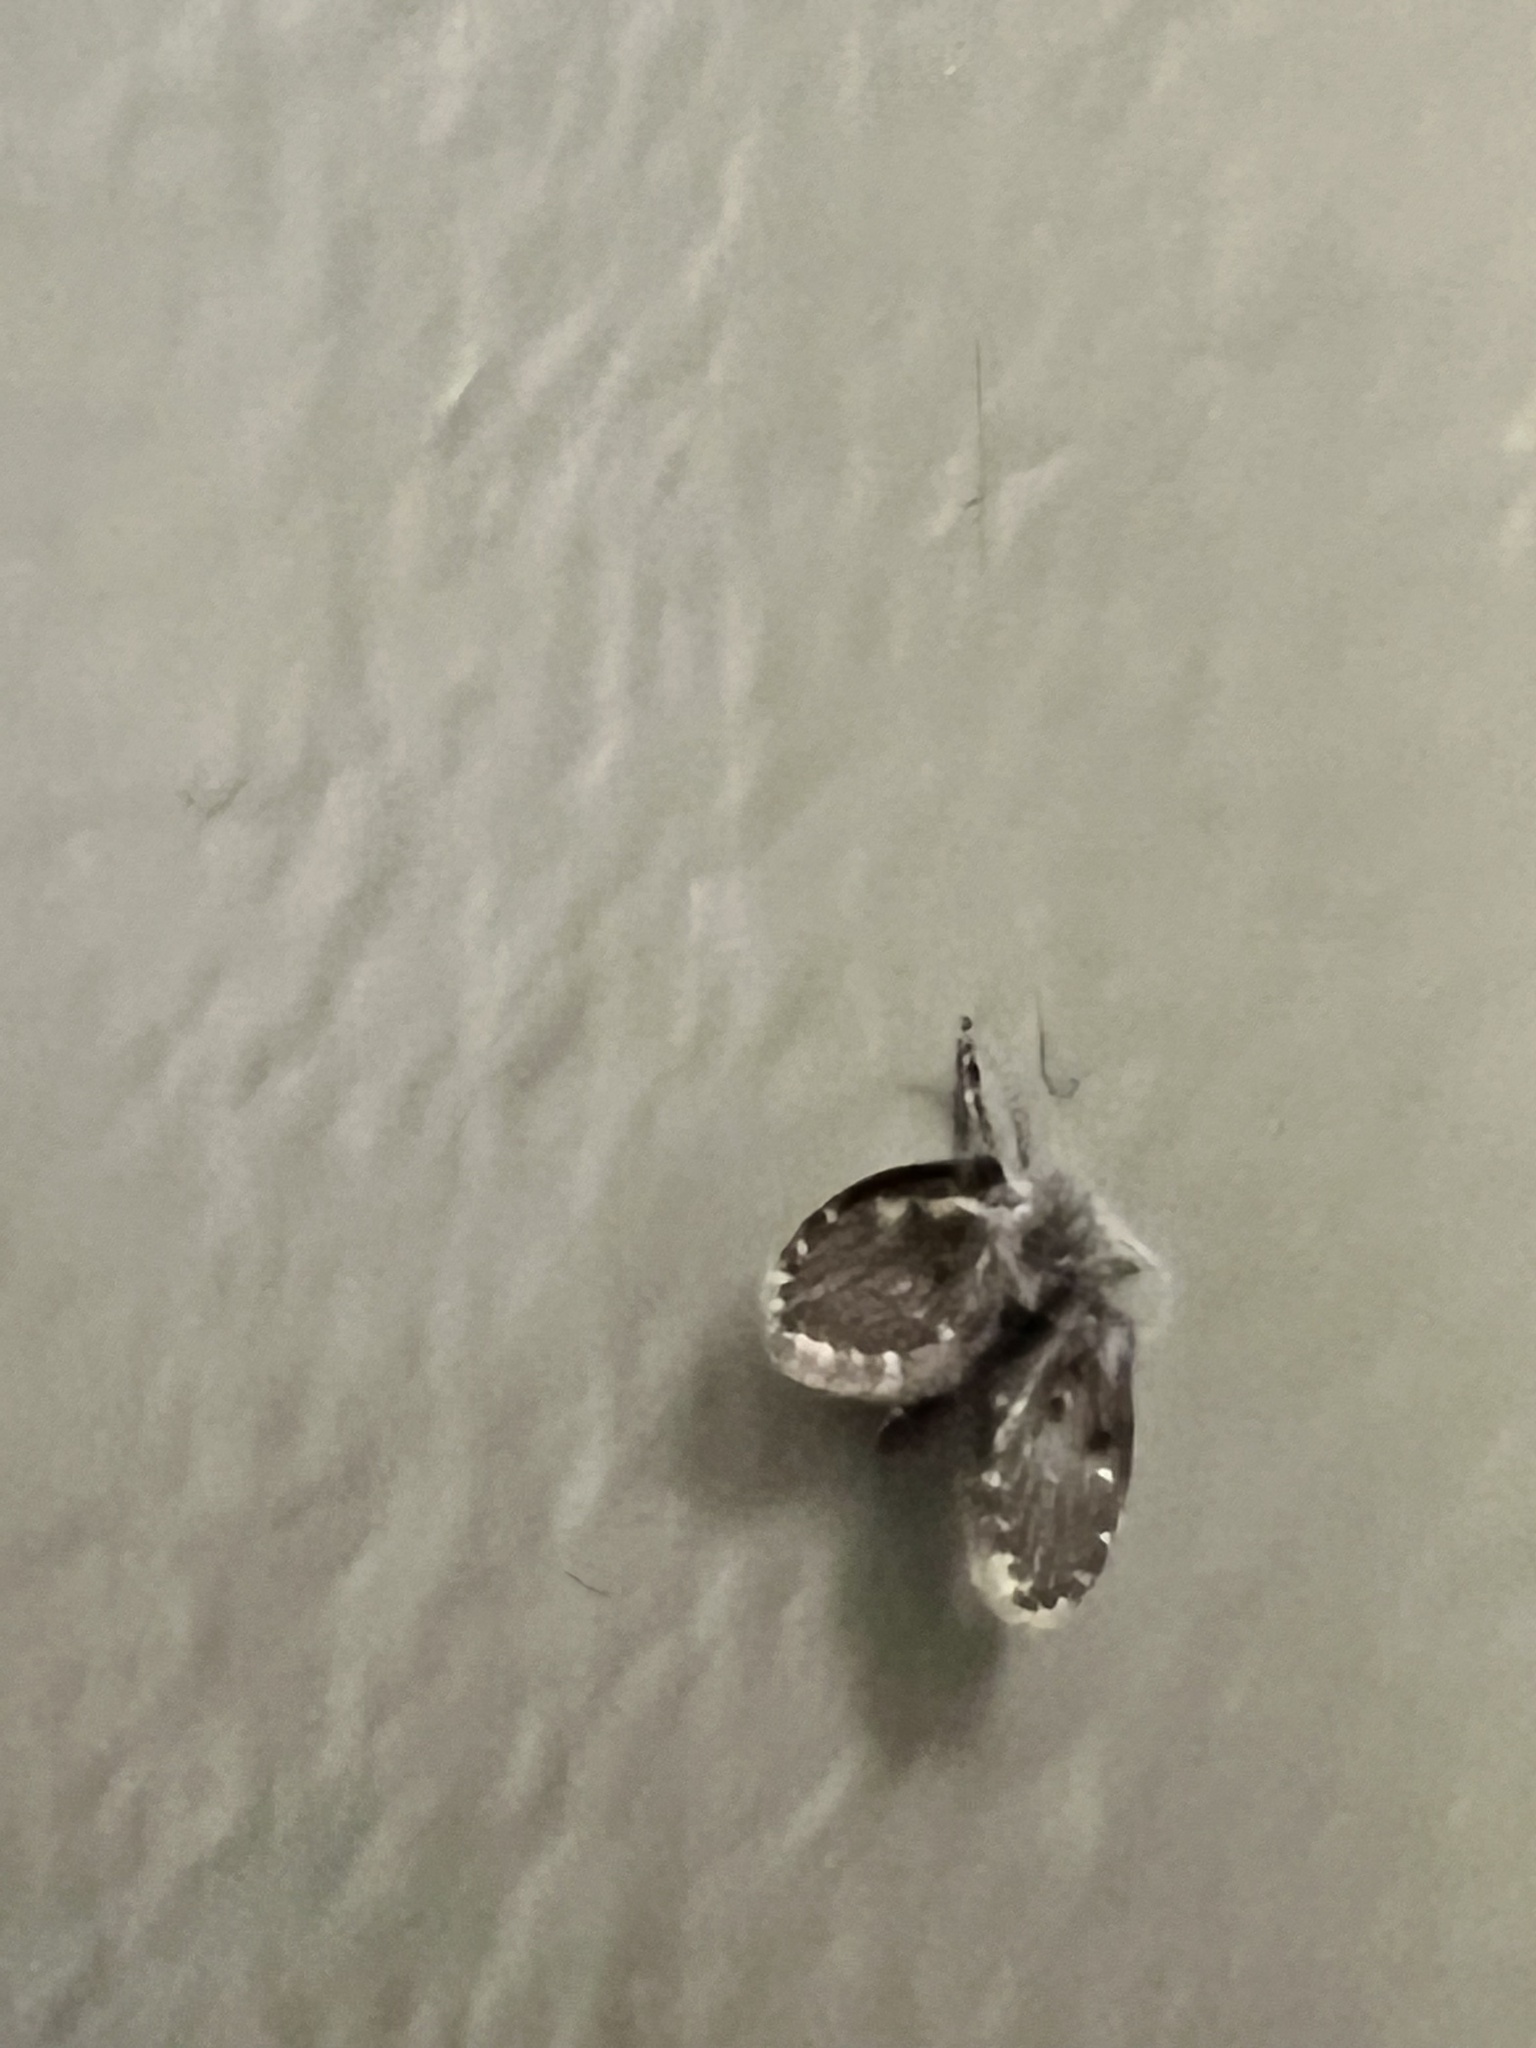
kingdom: Animalia
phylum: Arthropoda
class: Insecta
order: Diptera
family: Psychodidae
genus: Clogmia
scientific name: Clogmia albipunctatus
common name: White-spotted moth fly
